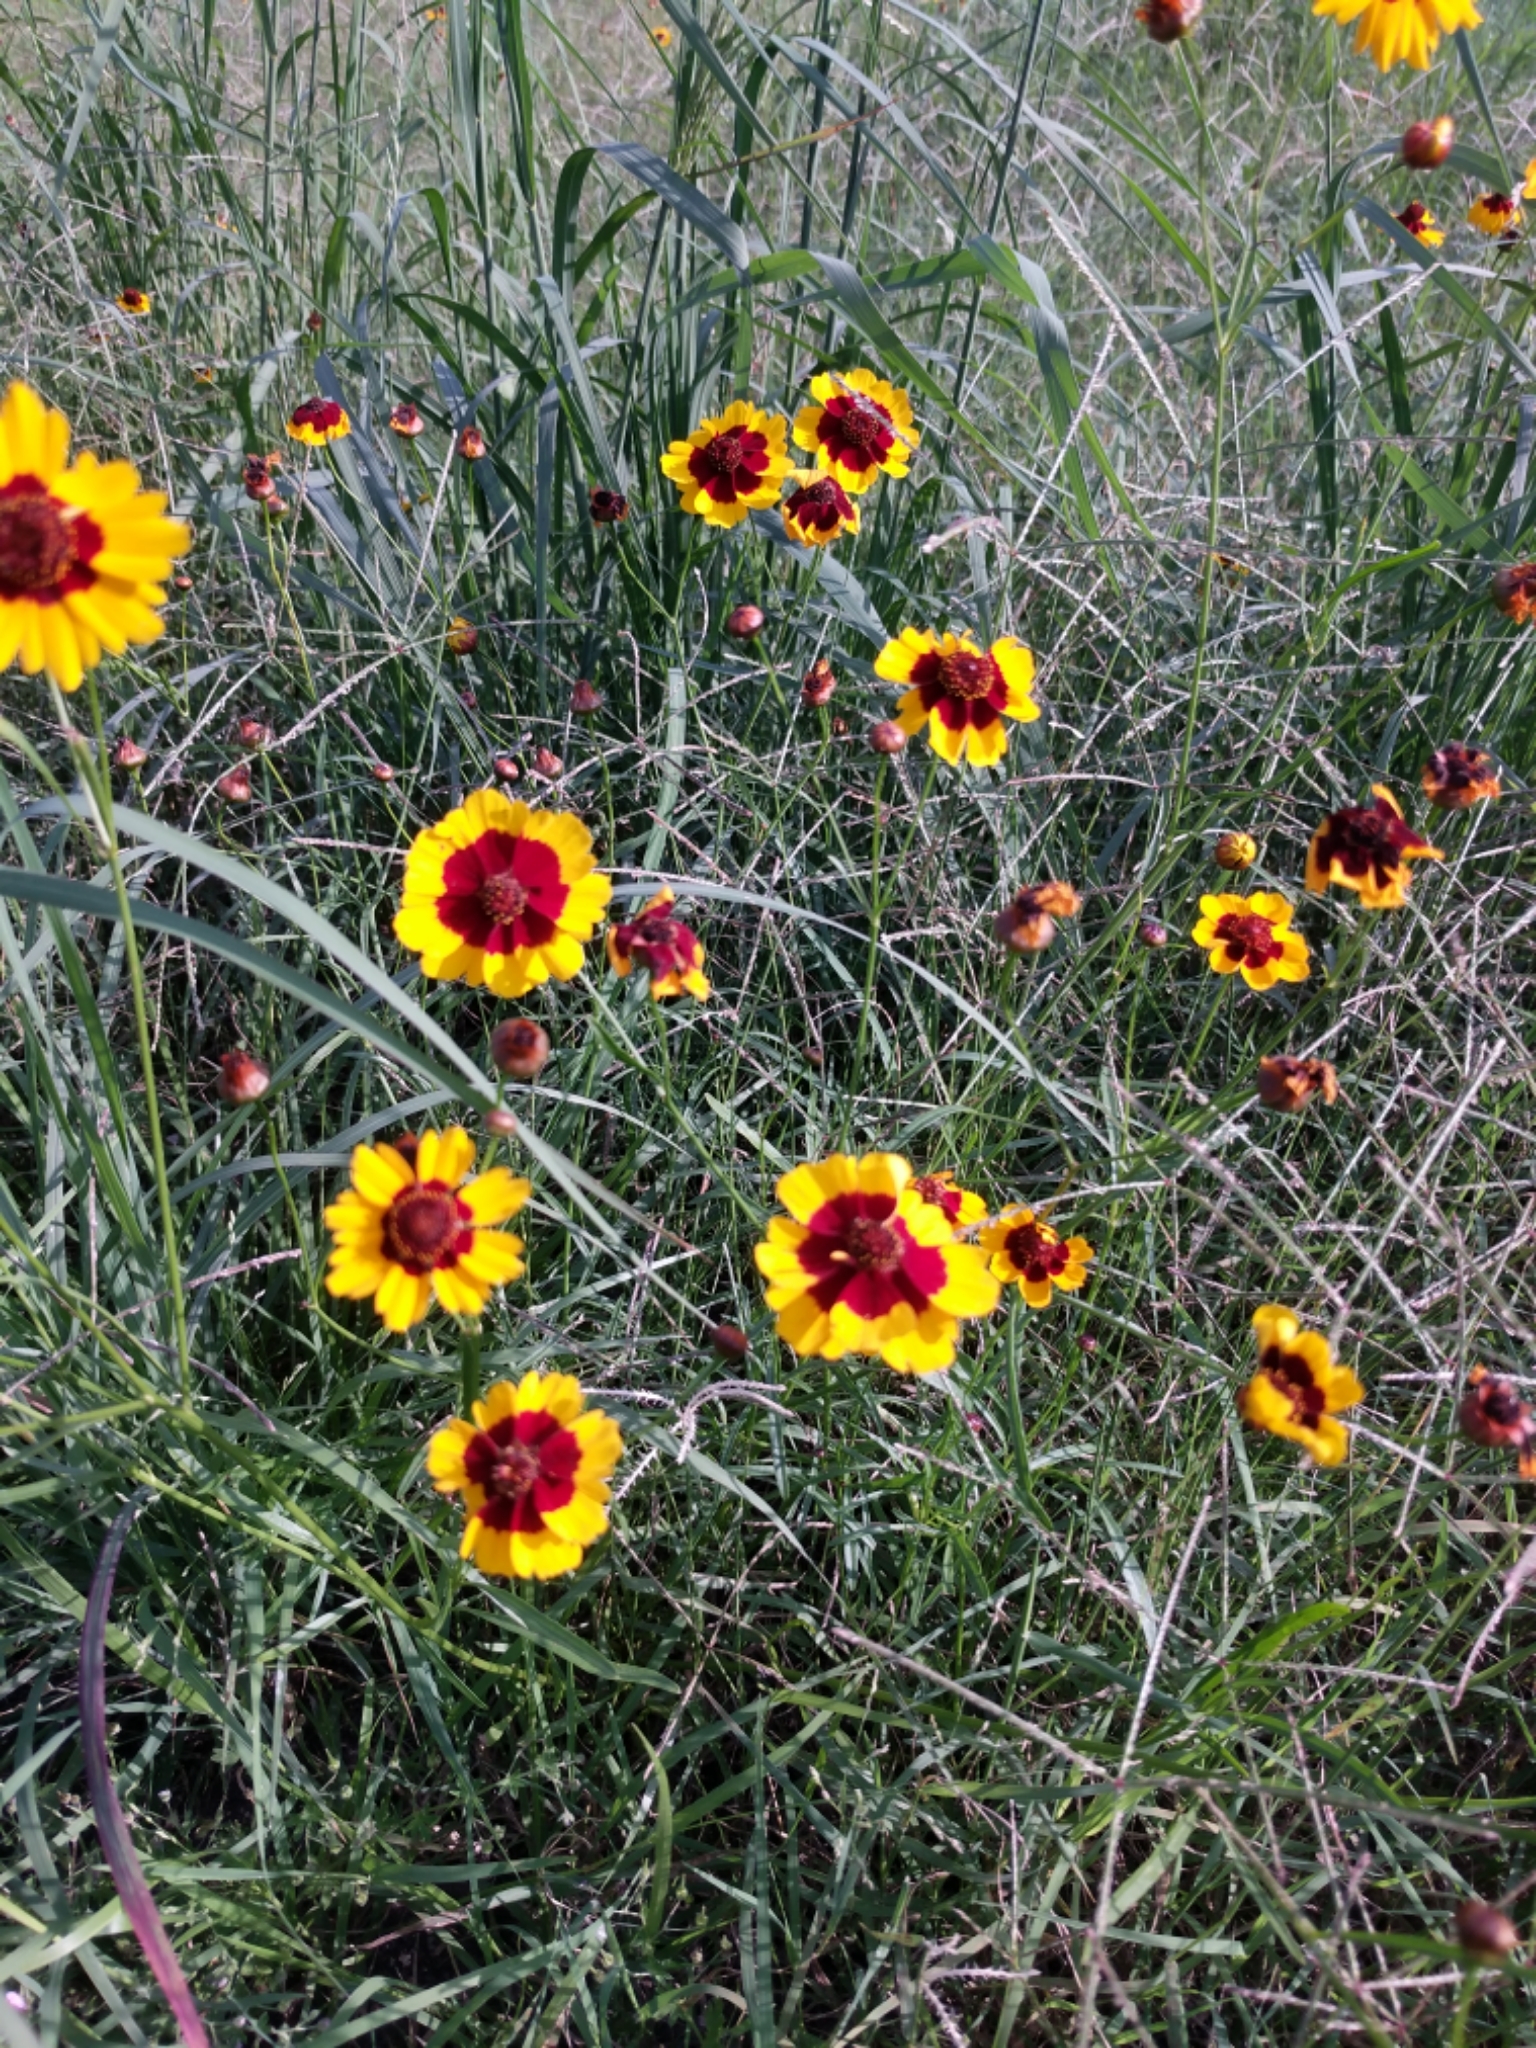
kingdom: Plantae
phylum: Tracheophyta
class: Magnoliopsida
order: Asterales
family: Asteraceae
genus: Coreopsis
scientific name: Coreopsis tinctoria
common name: Garden tickseed
